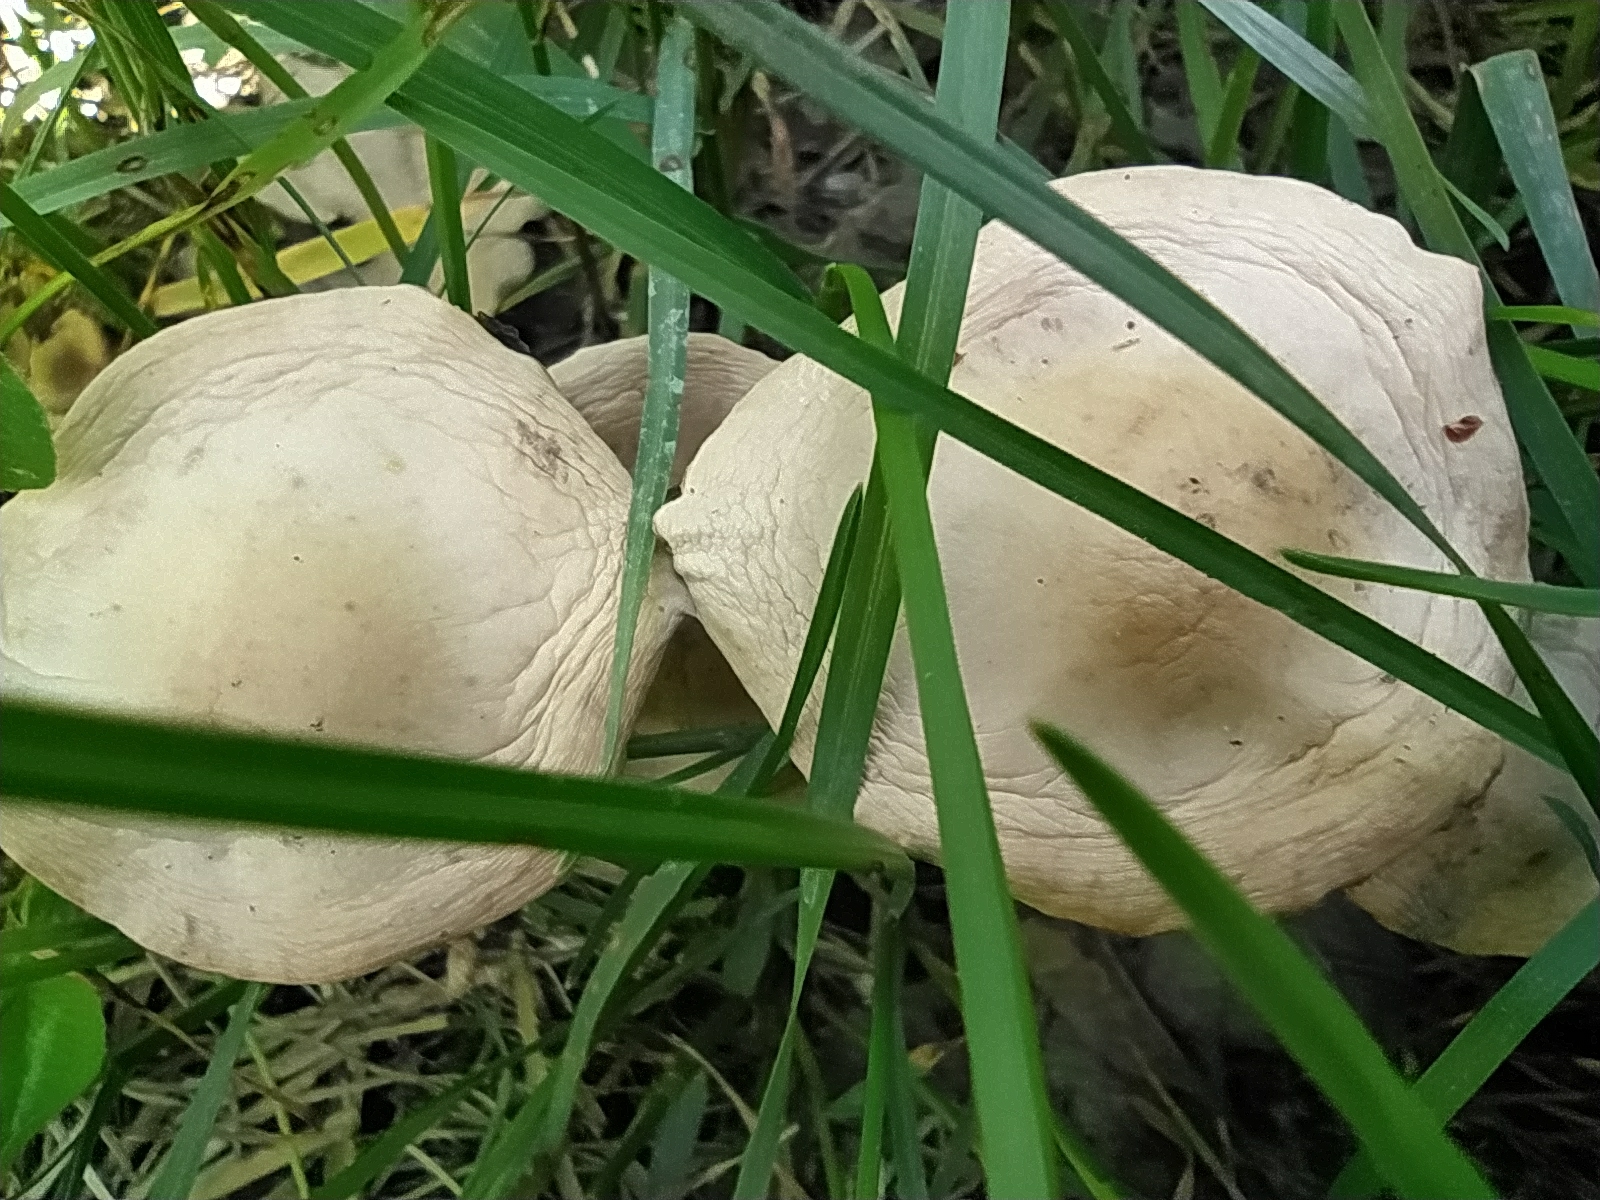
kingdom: Fungi
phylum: Basidiomycota
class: Agaricomycetes
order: Agaricales
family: Marasmiaceae
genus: Marasmius
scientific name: Marasmius oreades
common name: Fairy ring champignon
